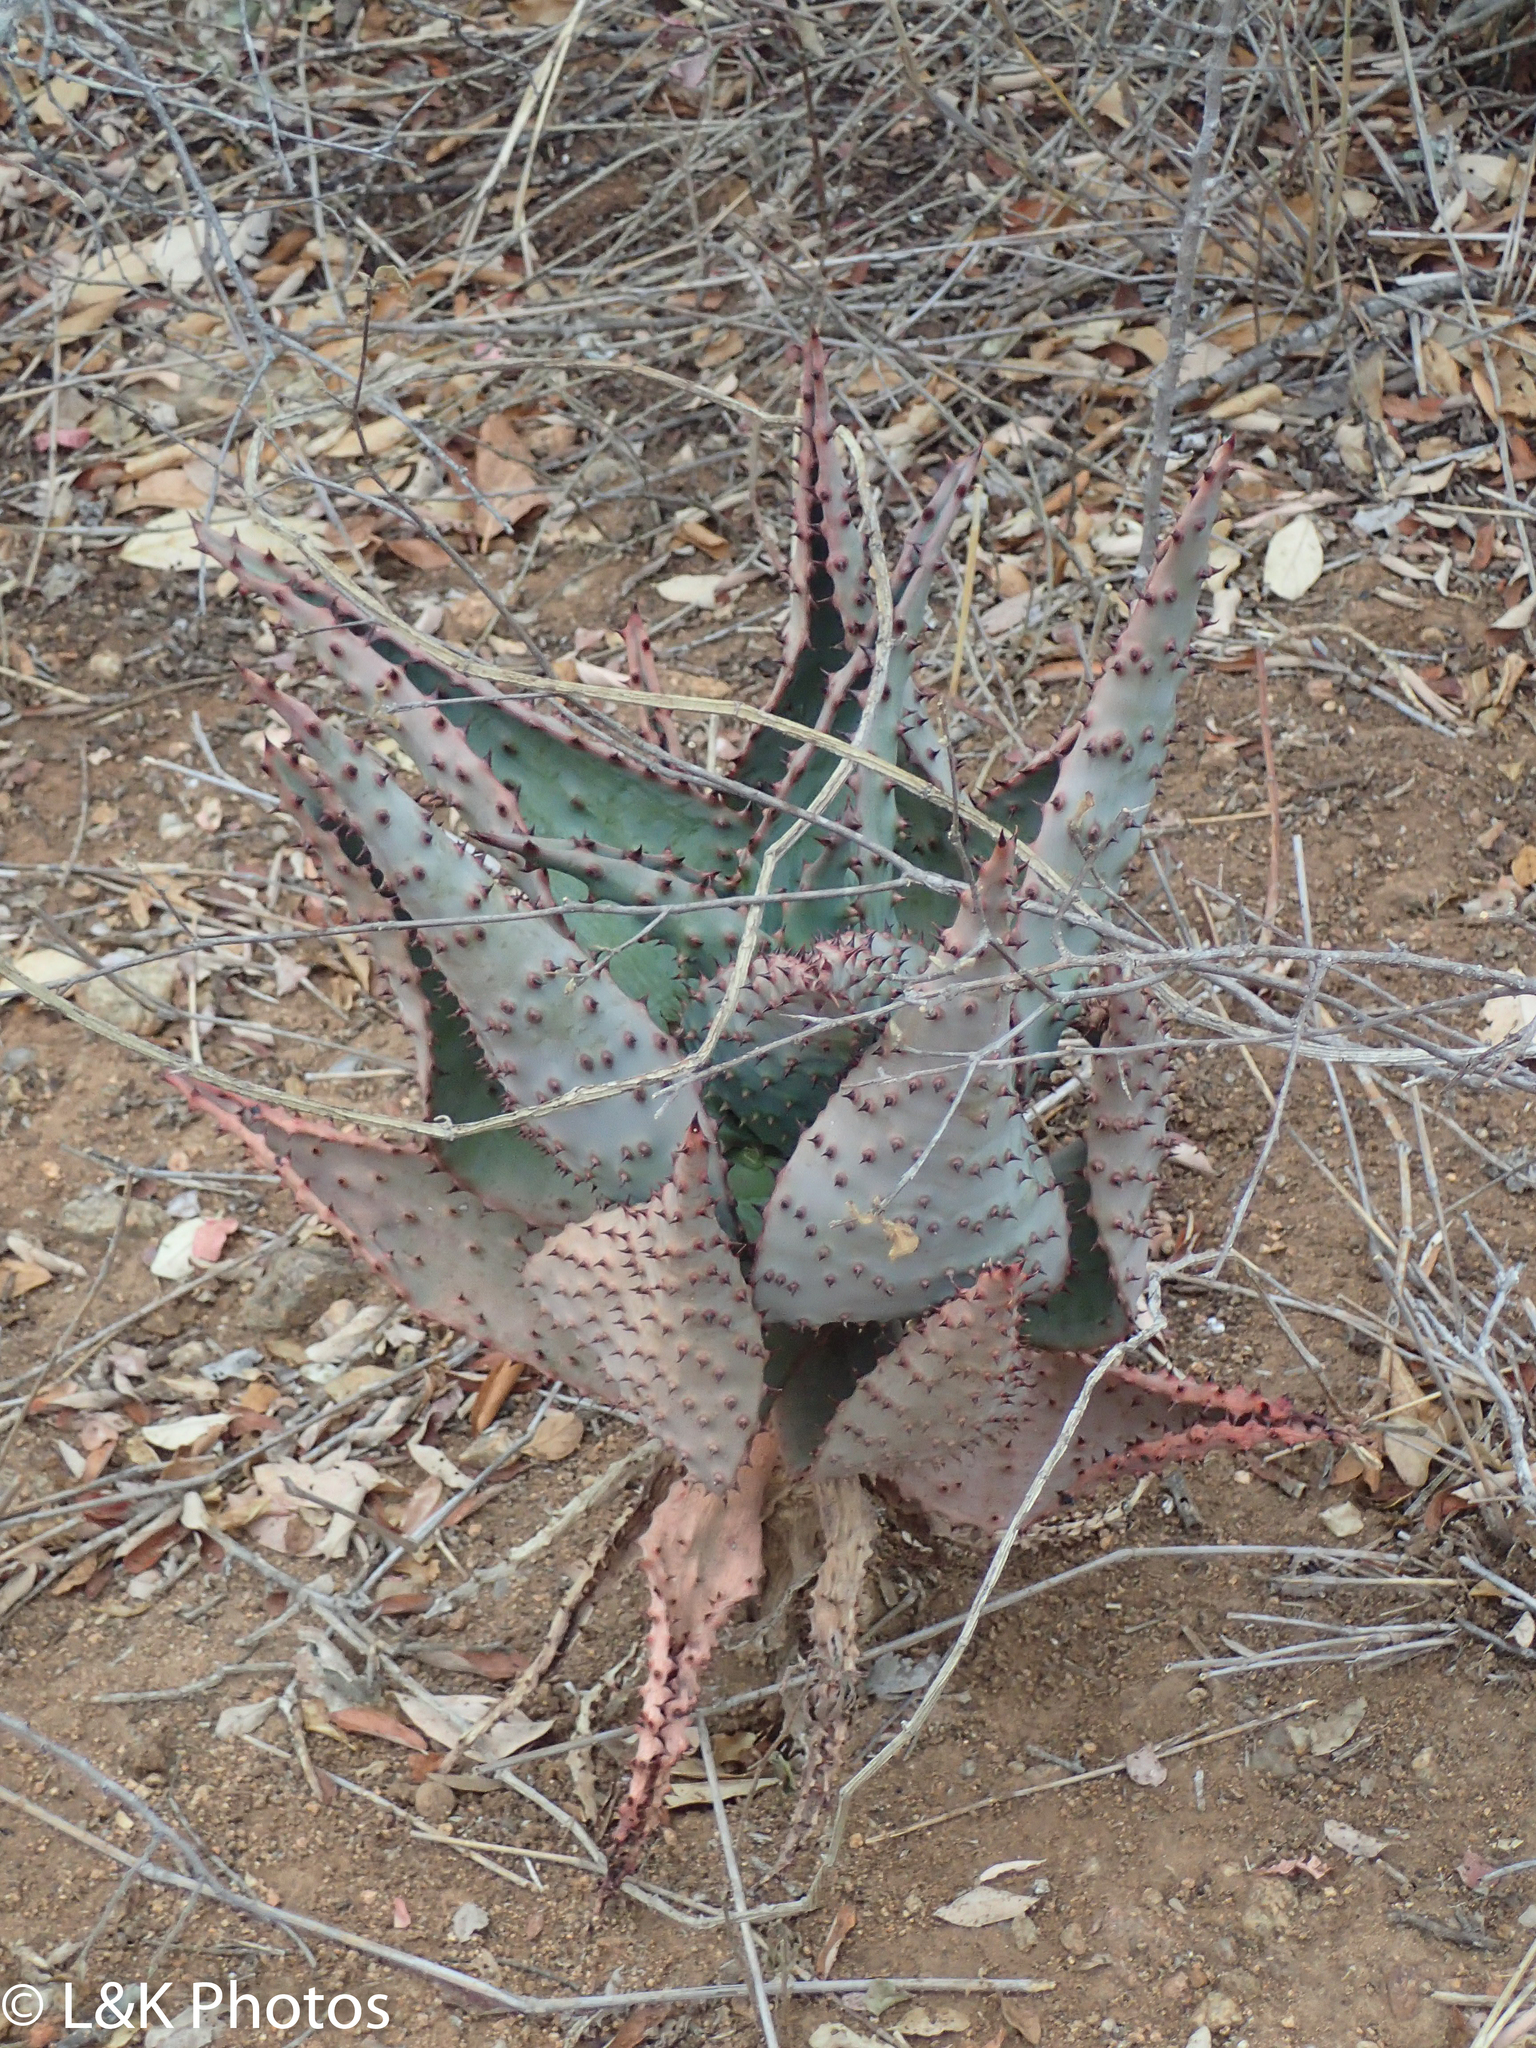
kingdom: Plantae
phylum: Tracheophyta
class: Liliopsida
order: Asparagales
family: Asphodelaceae
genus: Aloe
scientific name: Aloe marlothii
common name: Flat-flowered aloe
